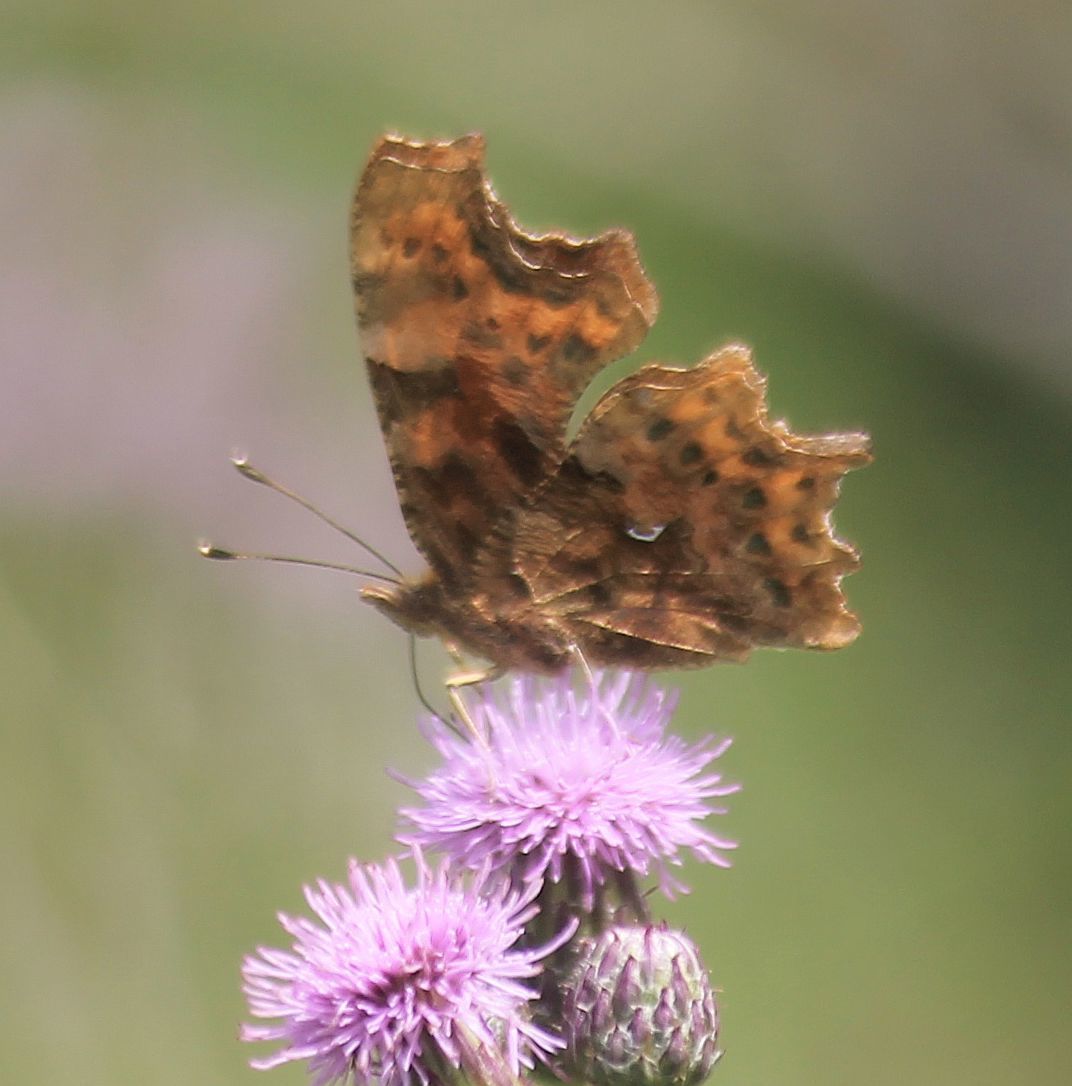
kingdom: Animalia
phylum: Arthropoda
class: Insecta
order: Lepidoptera
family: Nymphalidae
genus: Polygonia
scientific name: Polygonia c-album
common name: Comma
